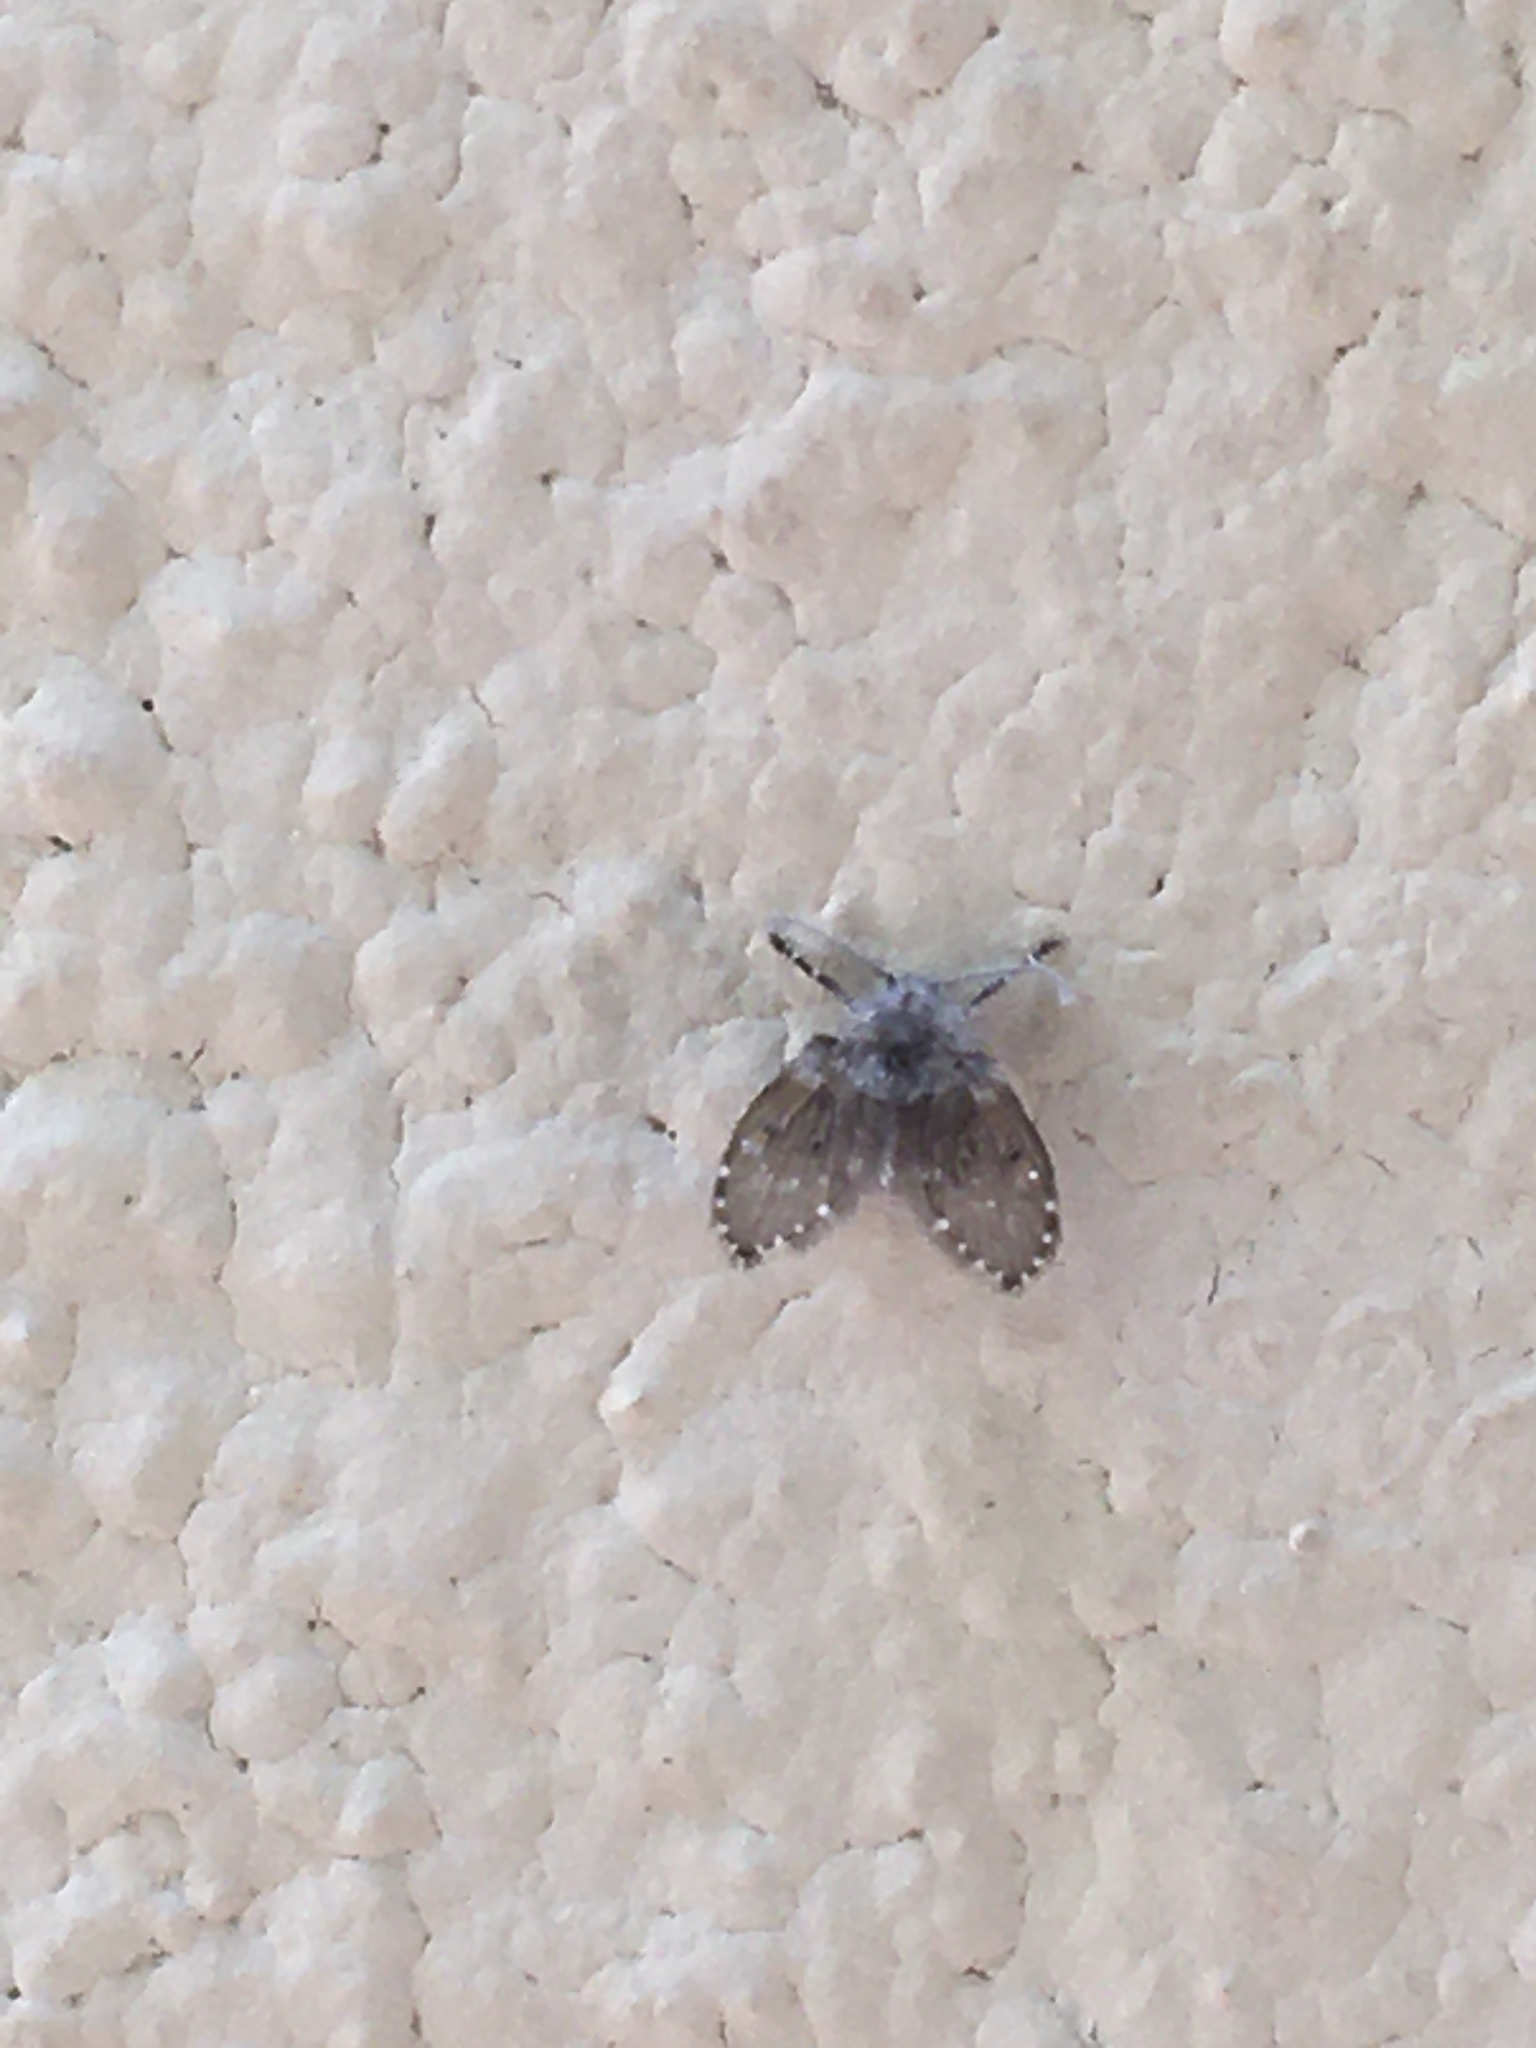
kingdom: Animalia
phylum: Arthropoda
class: Insecta
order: Diptera
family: Psychodidae
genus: Clogmia
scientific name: Clogmia albipunctatus
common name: White-spotted moth fly
